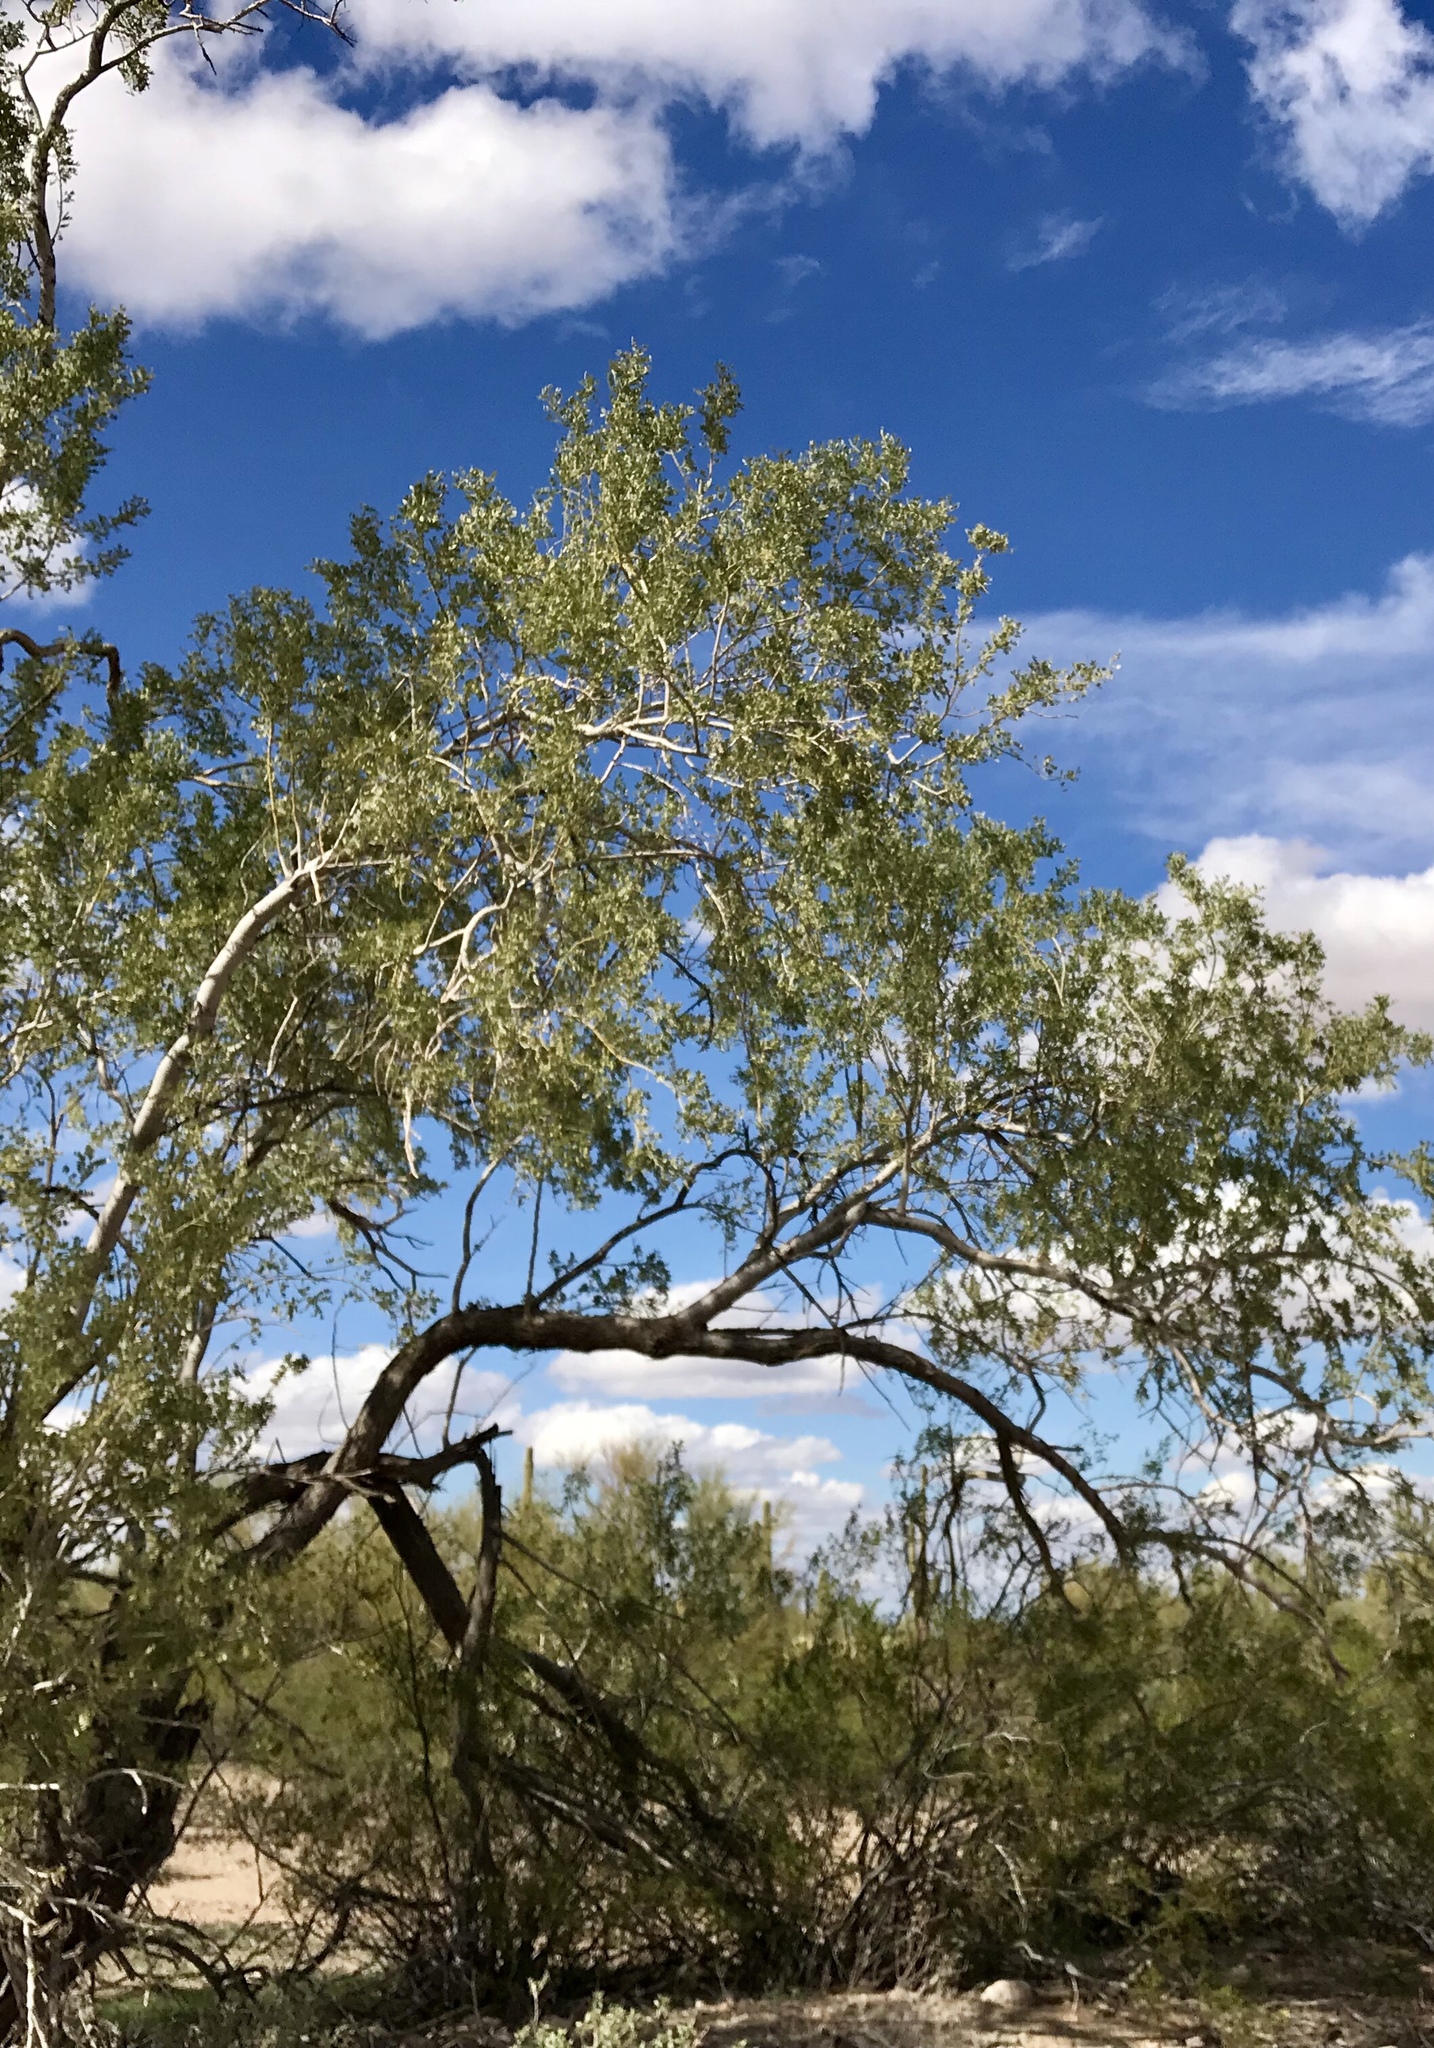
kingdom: Plantae
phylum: Tracheophyta
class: Magnoliopsida
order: Fabales
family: Fabaceae
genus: Olneya
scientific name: Olneya tesota
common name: Desert ironwood
